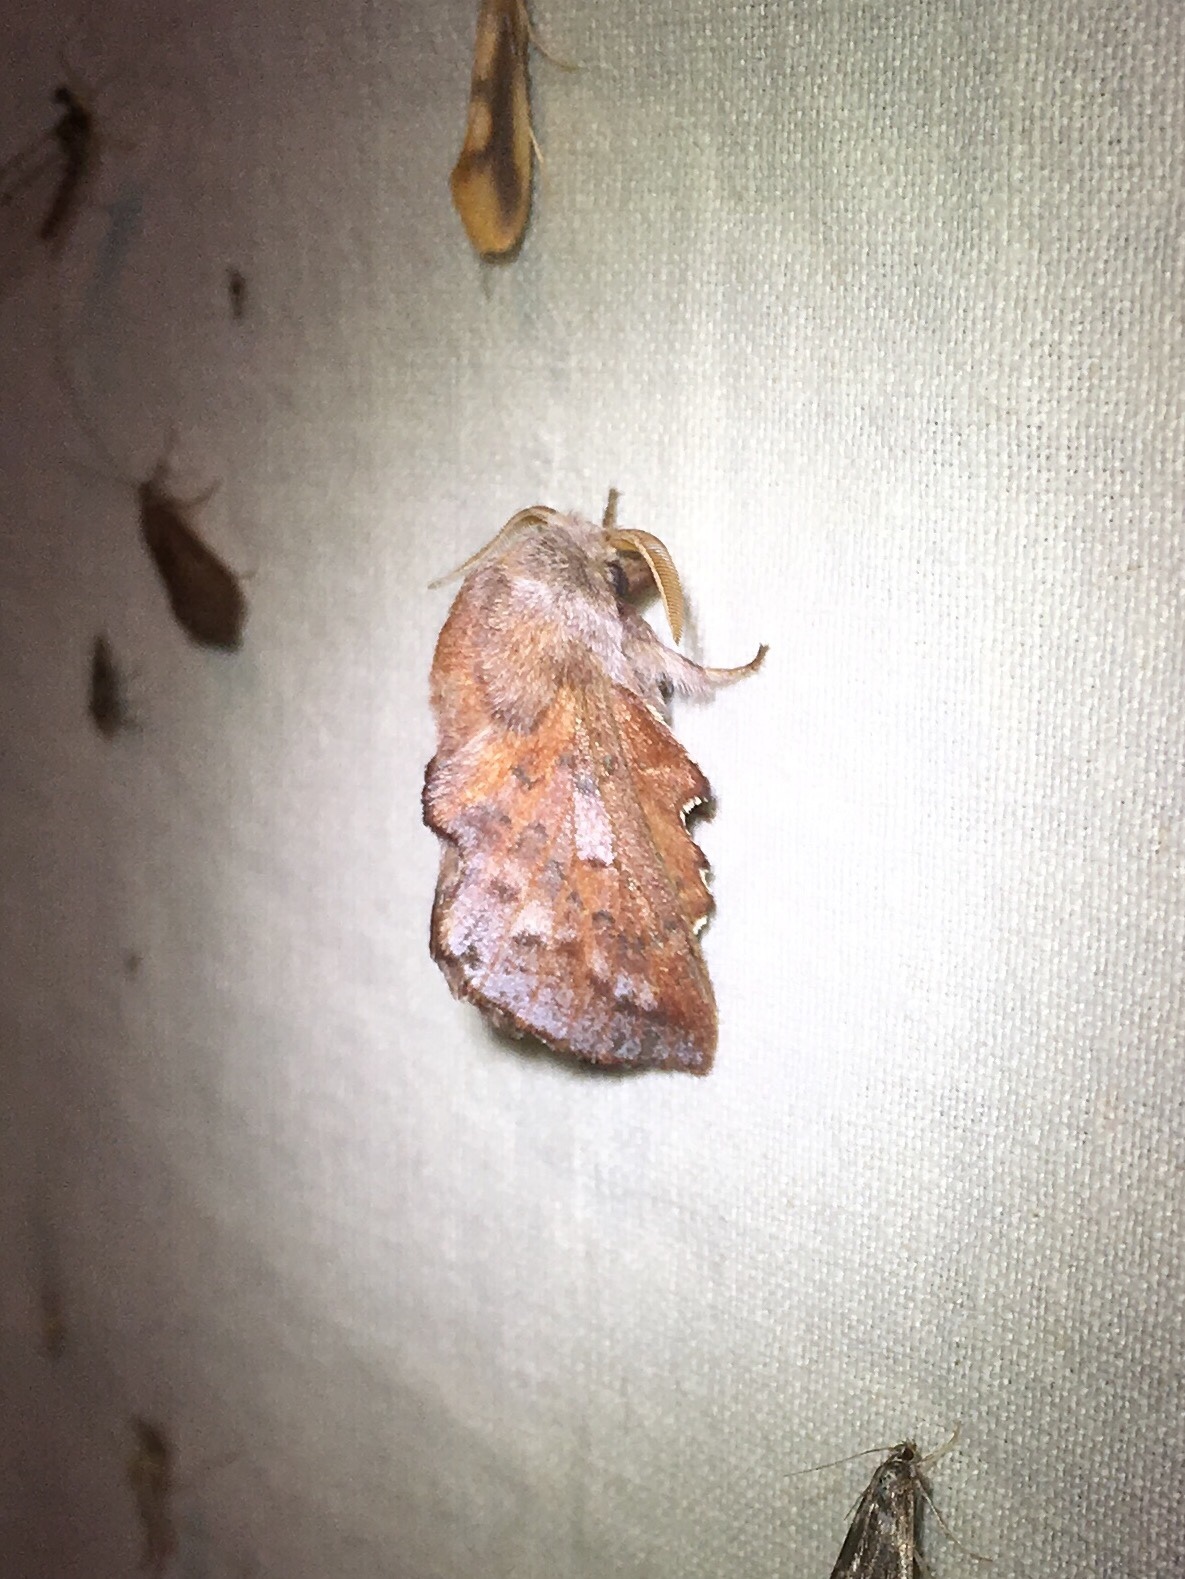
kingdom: Animalia
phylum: Arthropoda
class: Insecta
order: Lepidoptera
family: Lasiocampidae
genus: Phyllodesma
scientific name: Phyllodesma americana
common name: American lappet moth
